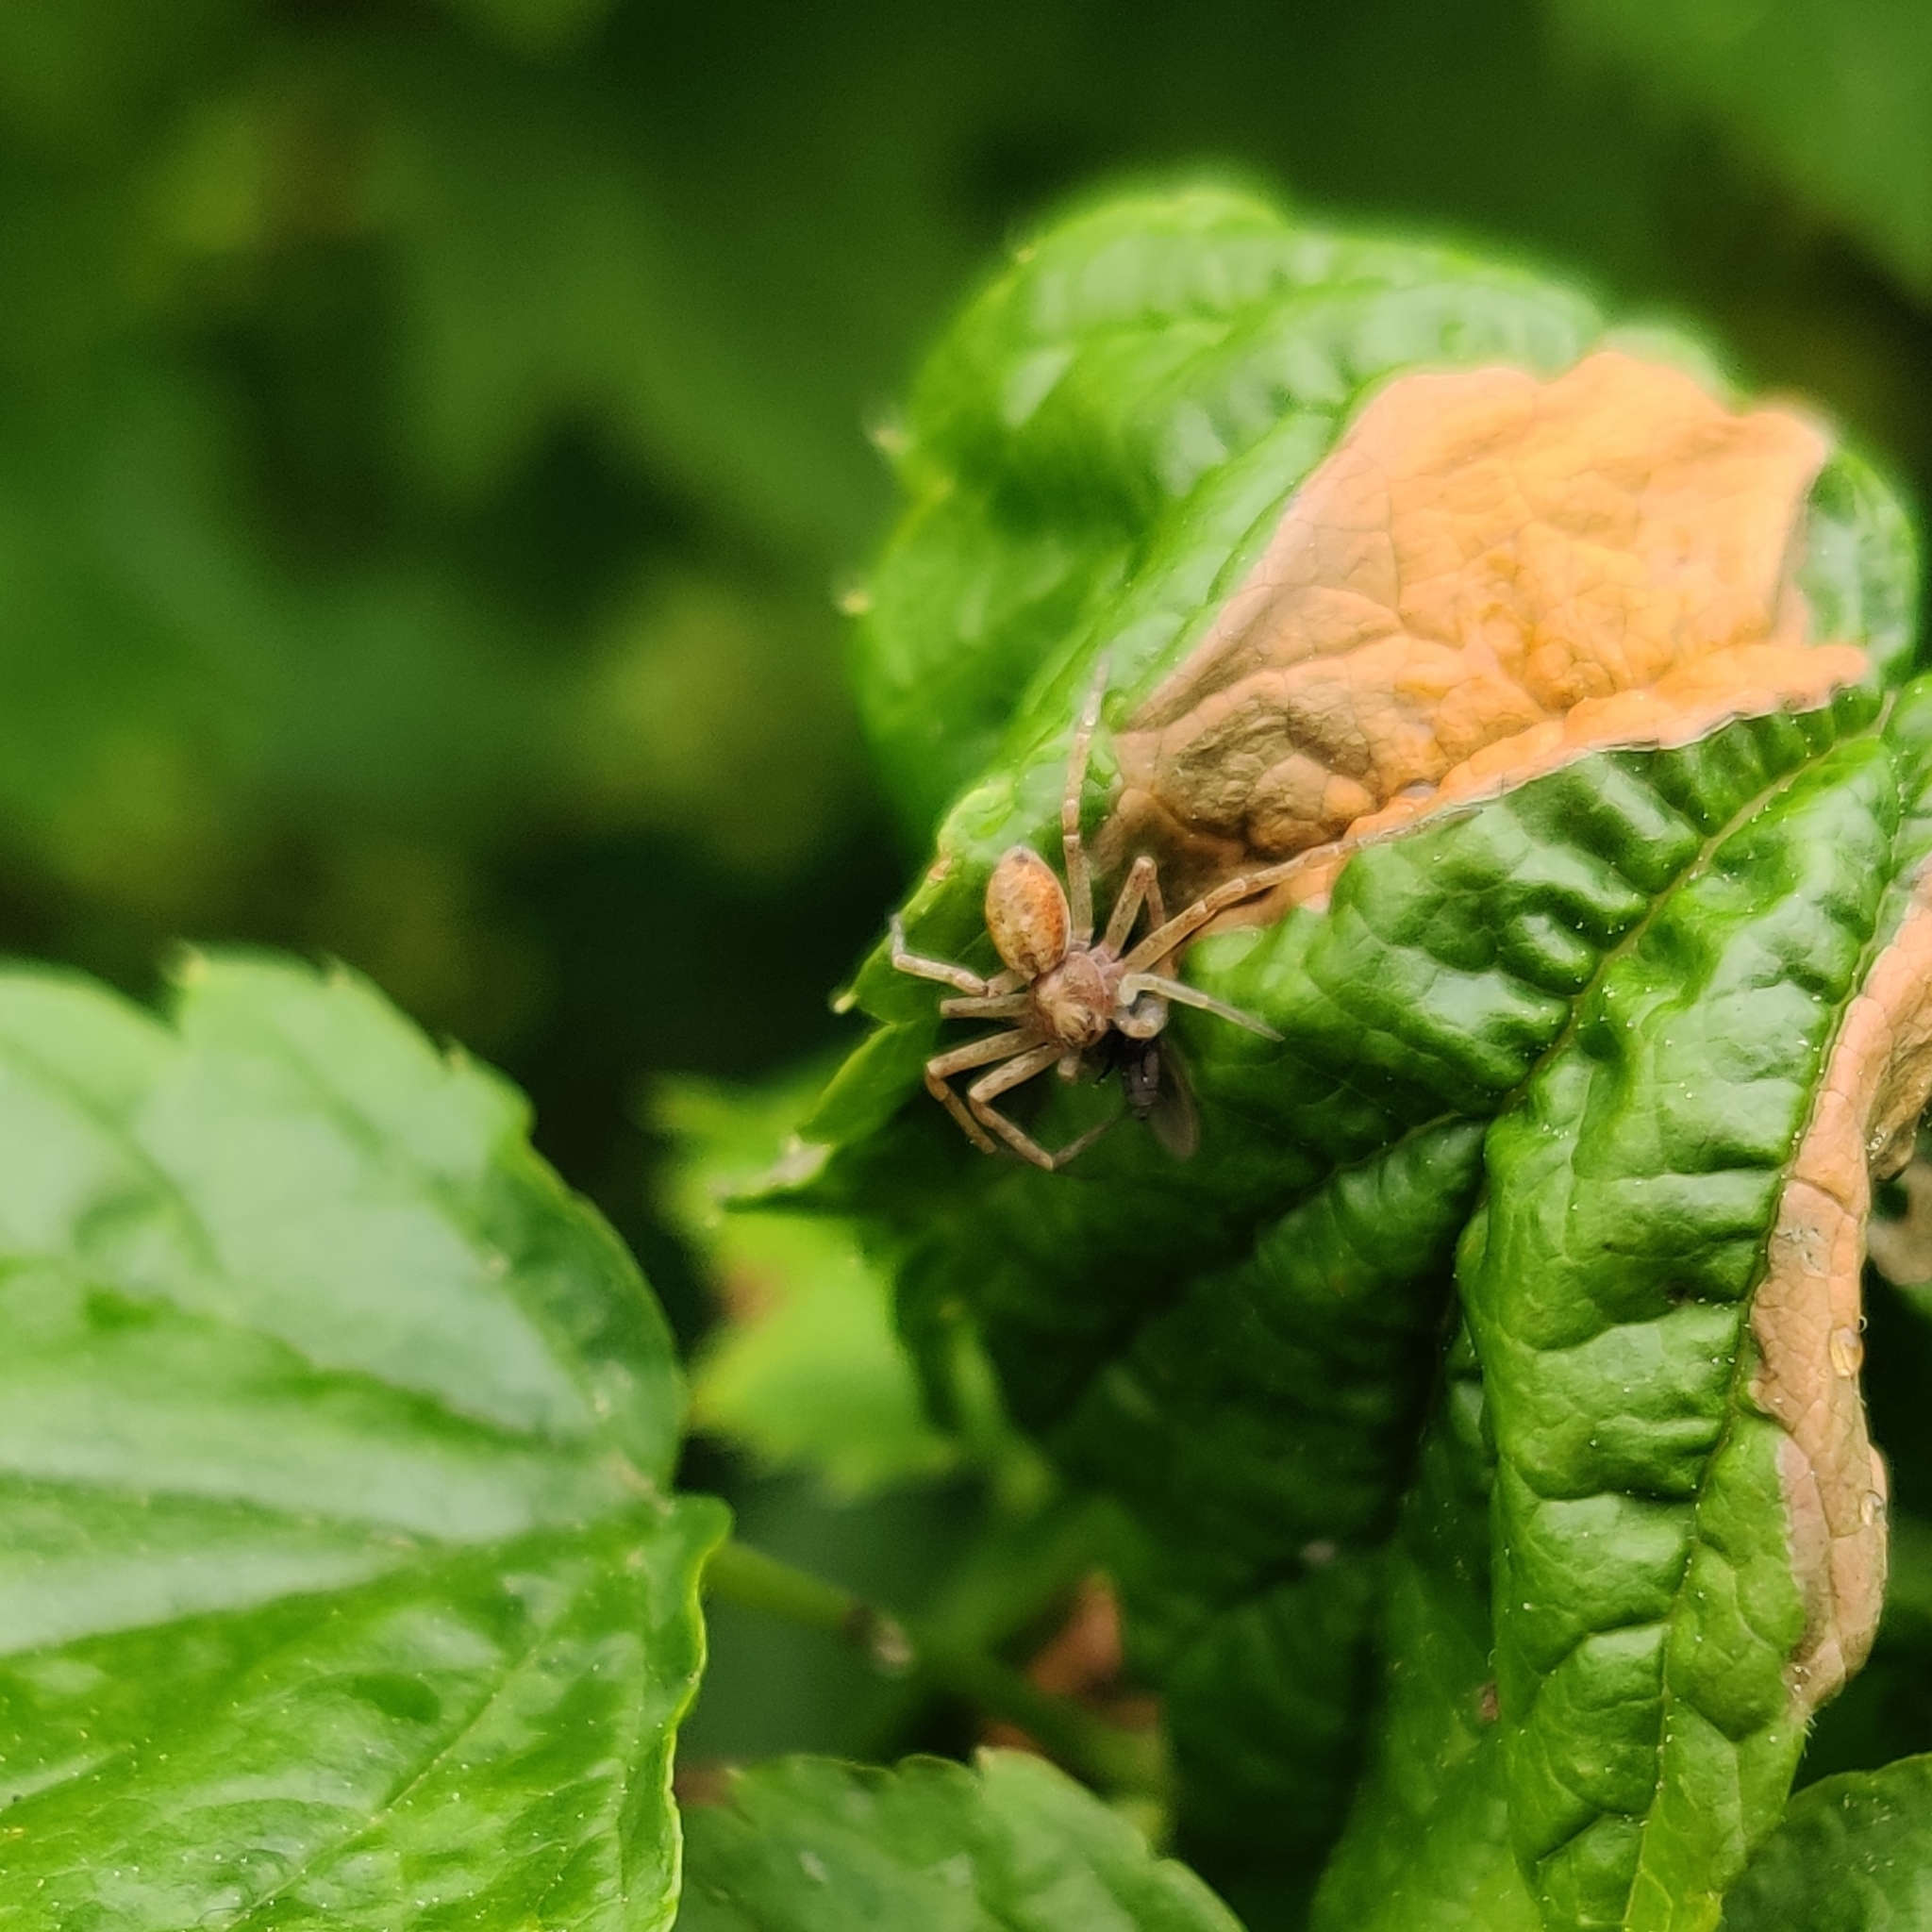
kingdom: Animalia
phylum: Arthropoda
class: Arachnida
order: Araneae
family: Philodromidae
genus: Philodromus
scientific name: Philodromus
